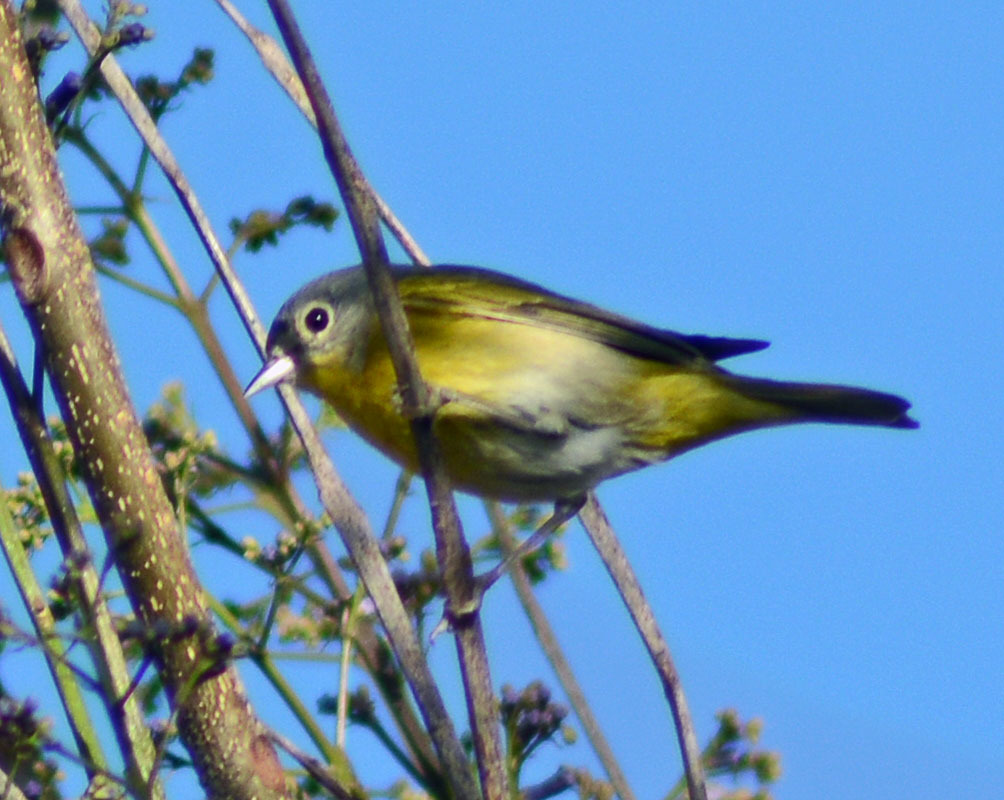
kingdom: Animalia
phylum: Chordata
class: Aves
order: Passeriformes
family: Parulidae
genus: Leiothlypis
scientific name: Leiothlypis ruficapilla
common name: Nashville warbler
